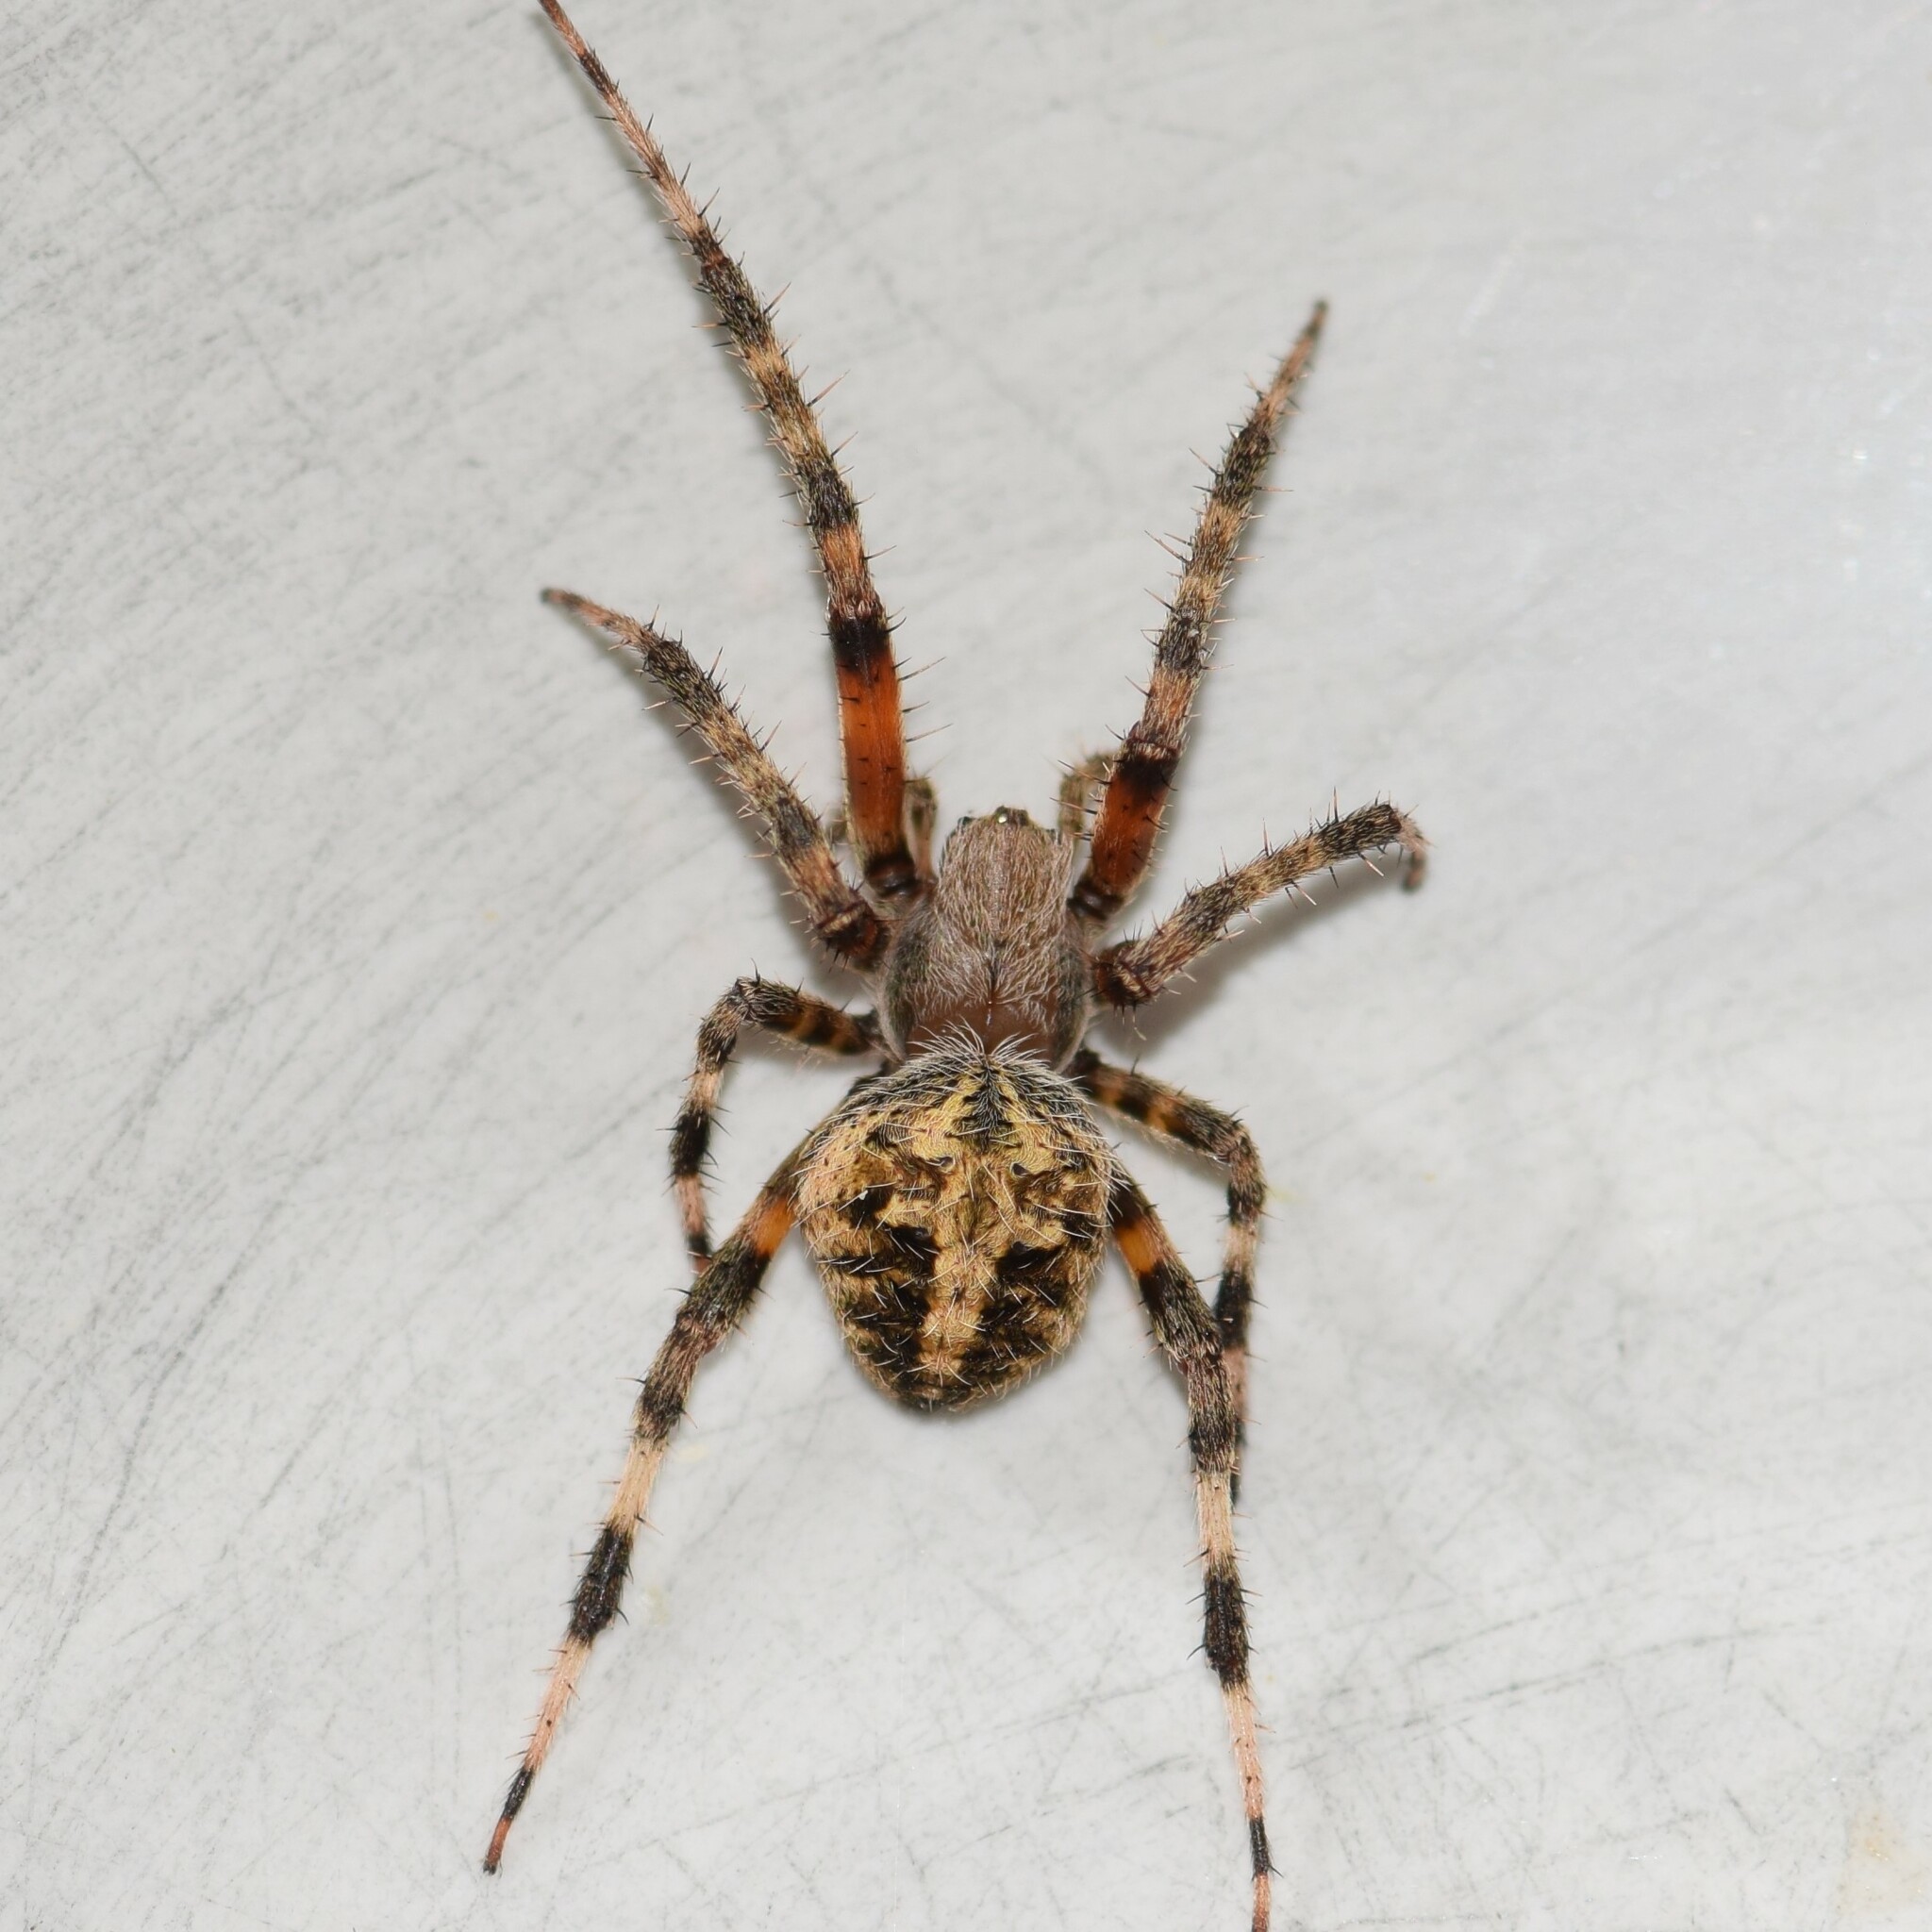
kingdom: Animalia
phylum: Arthropoda
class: Arachnida
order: Araneae
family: Araneidae
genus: Neoscona
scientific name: Neoscona domiciliorum
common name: Red-femured spotted orbweaver
